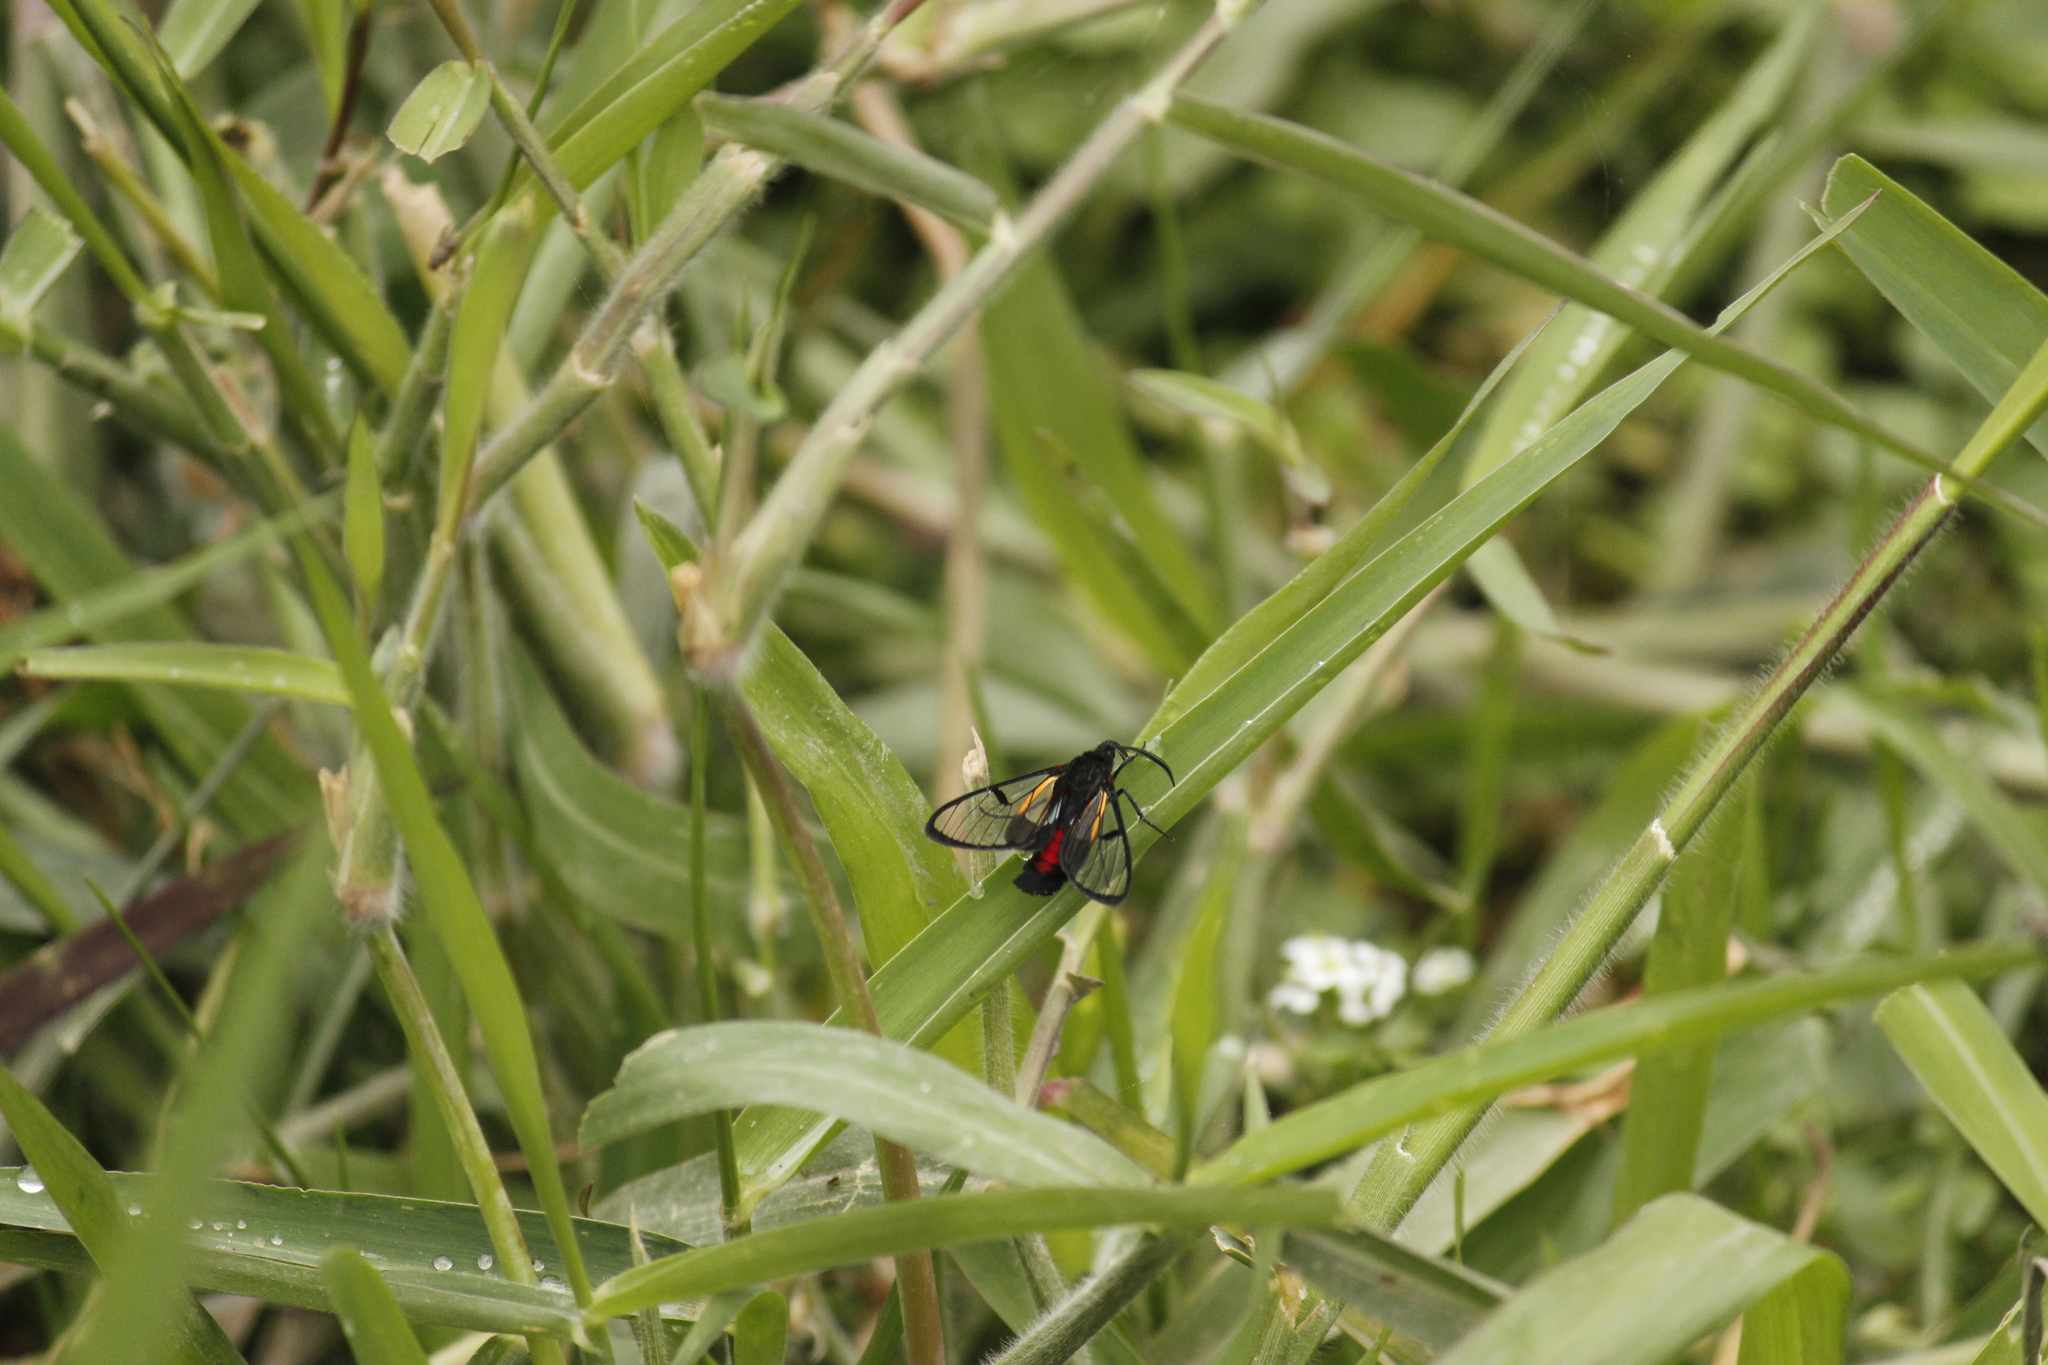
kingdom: Animalia
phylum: Arthropoda
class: Insecta
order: Lepidoptera
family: Erebidae
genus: Dinia
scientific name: Dinia subapicalis
